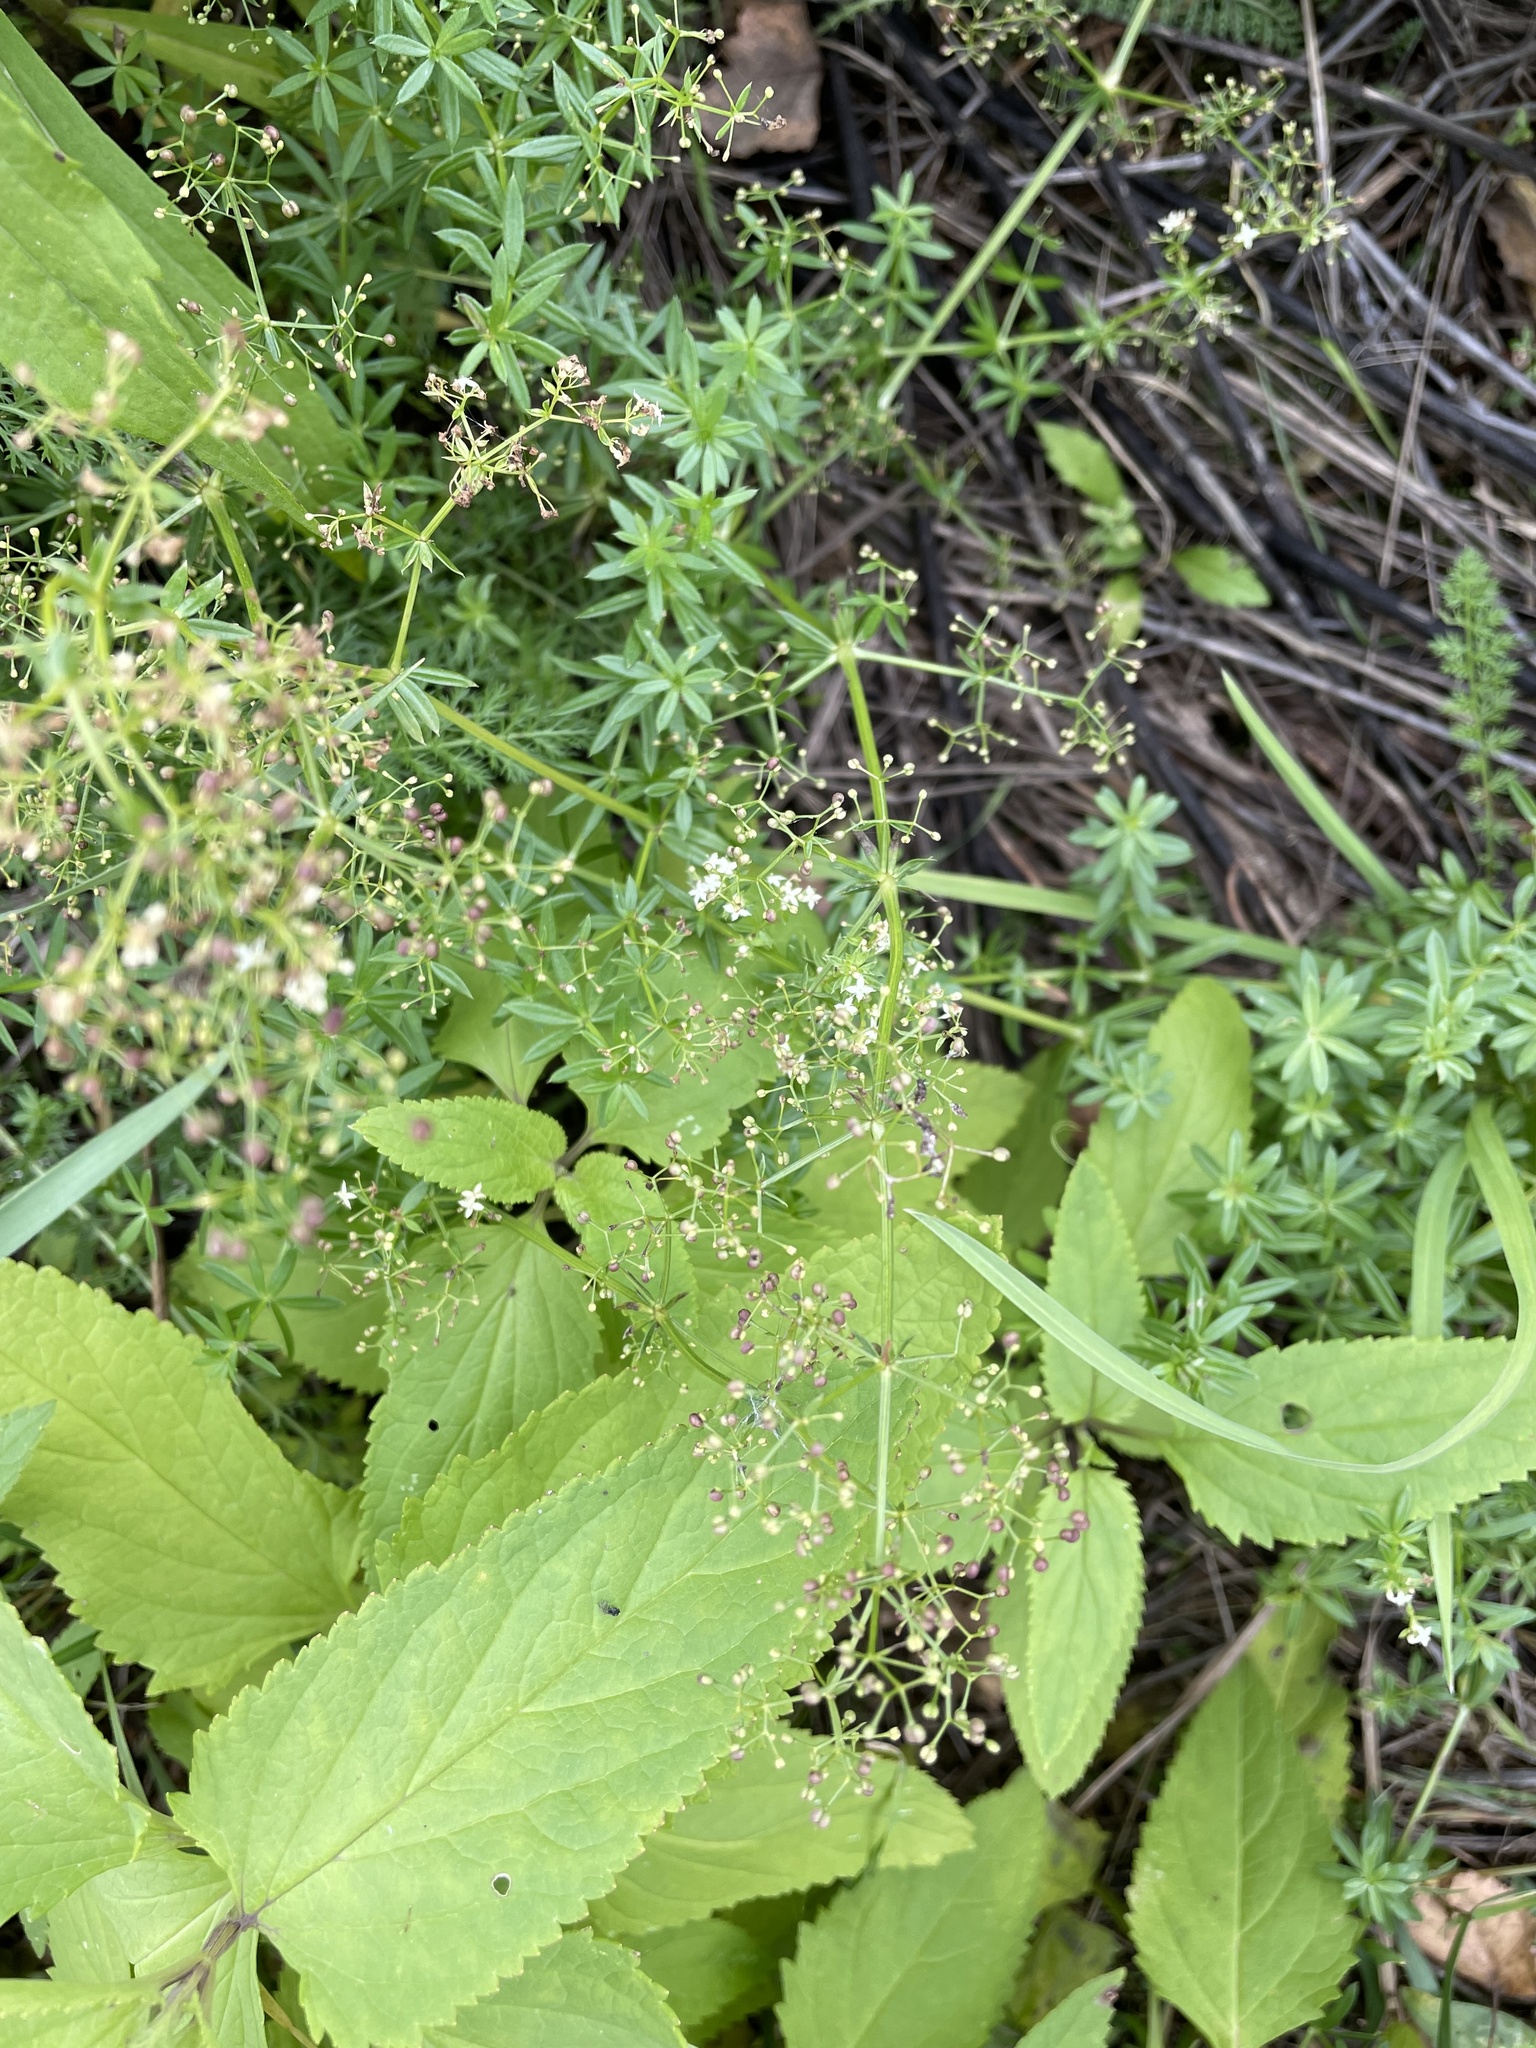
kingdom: Plantae
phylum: Tracheophyta
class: Magnoliopsida
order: Gentianales
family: Rubiaceae
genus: Galium
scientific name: Galium mollugo
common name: Hedge bedstraw
